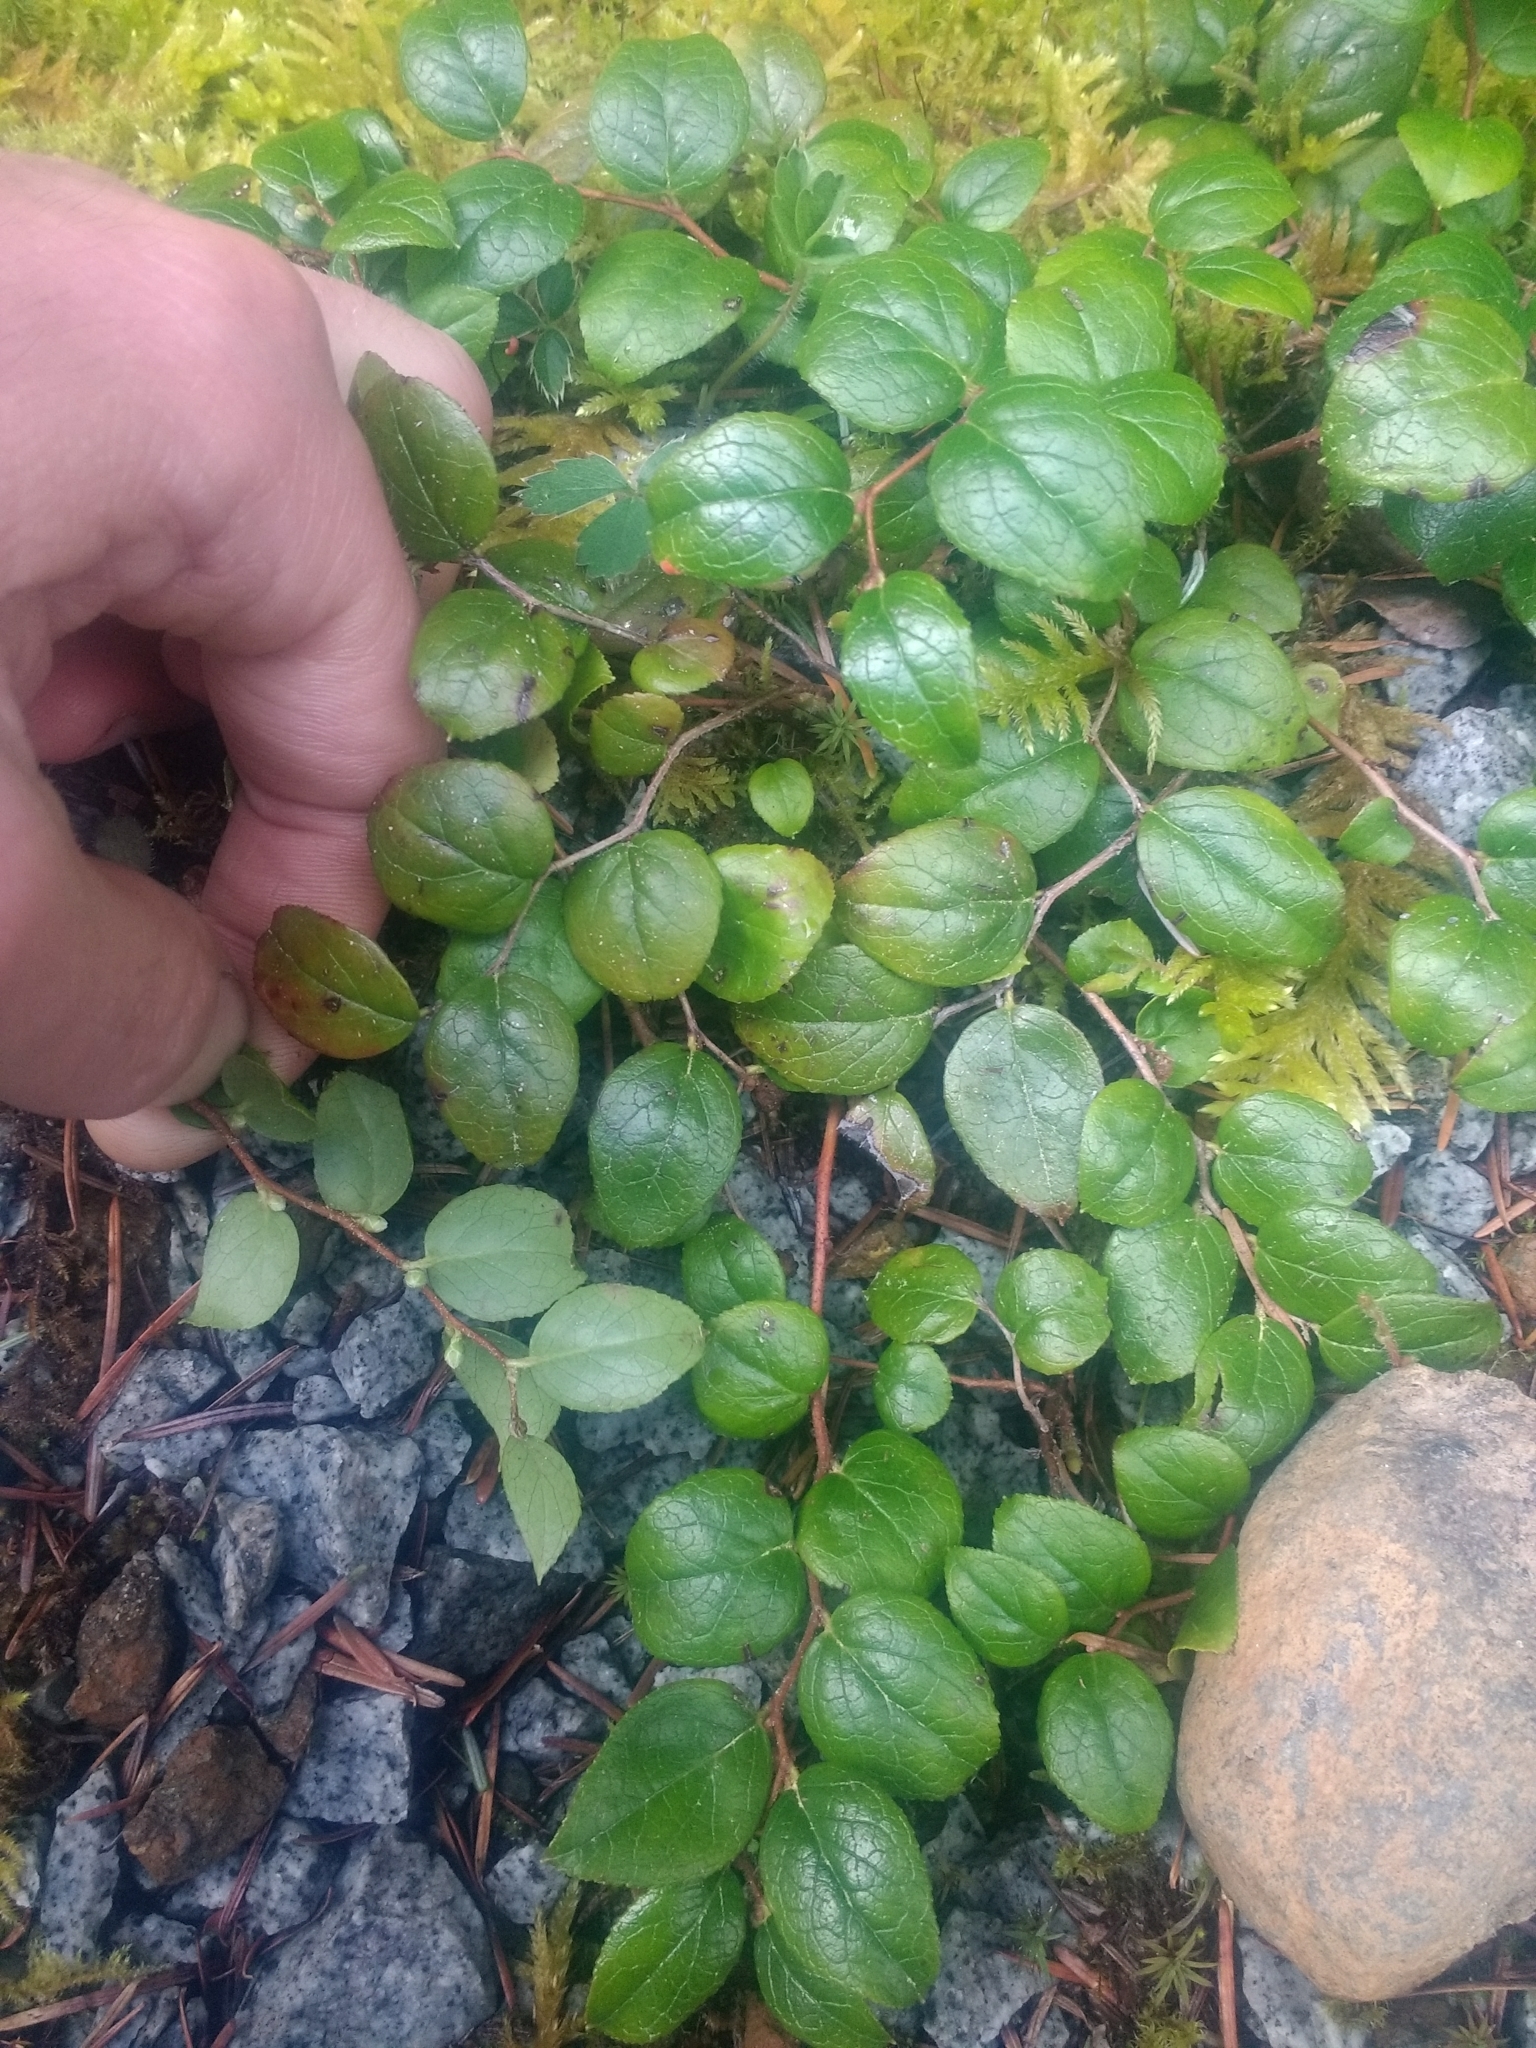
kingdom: Plantae
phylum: Tracheophyta
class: Magnoliopsida
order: Ericales
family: Ericaceae
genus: Gaultheria
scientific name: Gaultheria ovatifolia
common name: Oregon wintergreen
